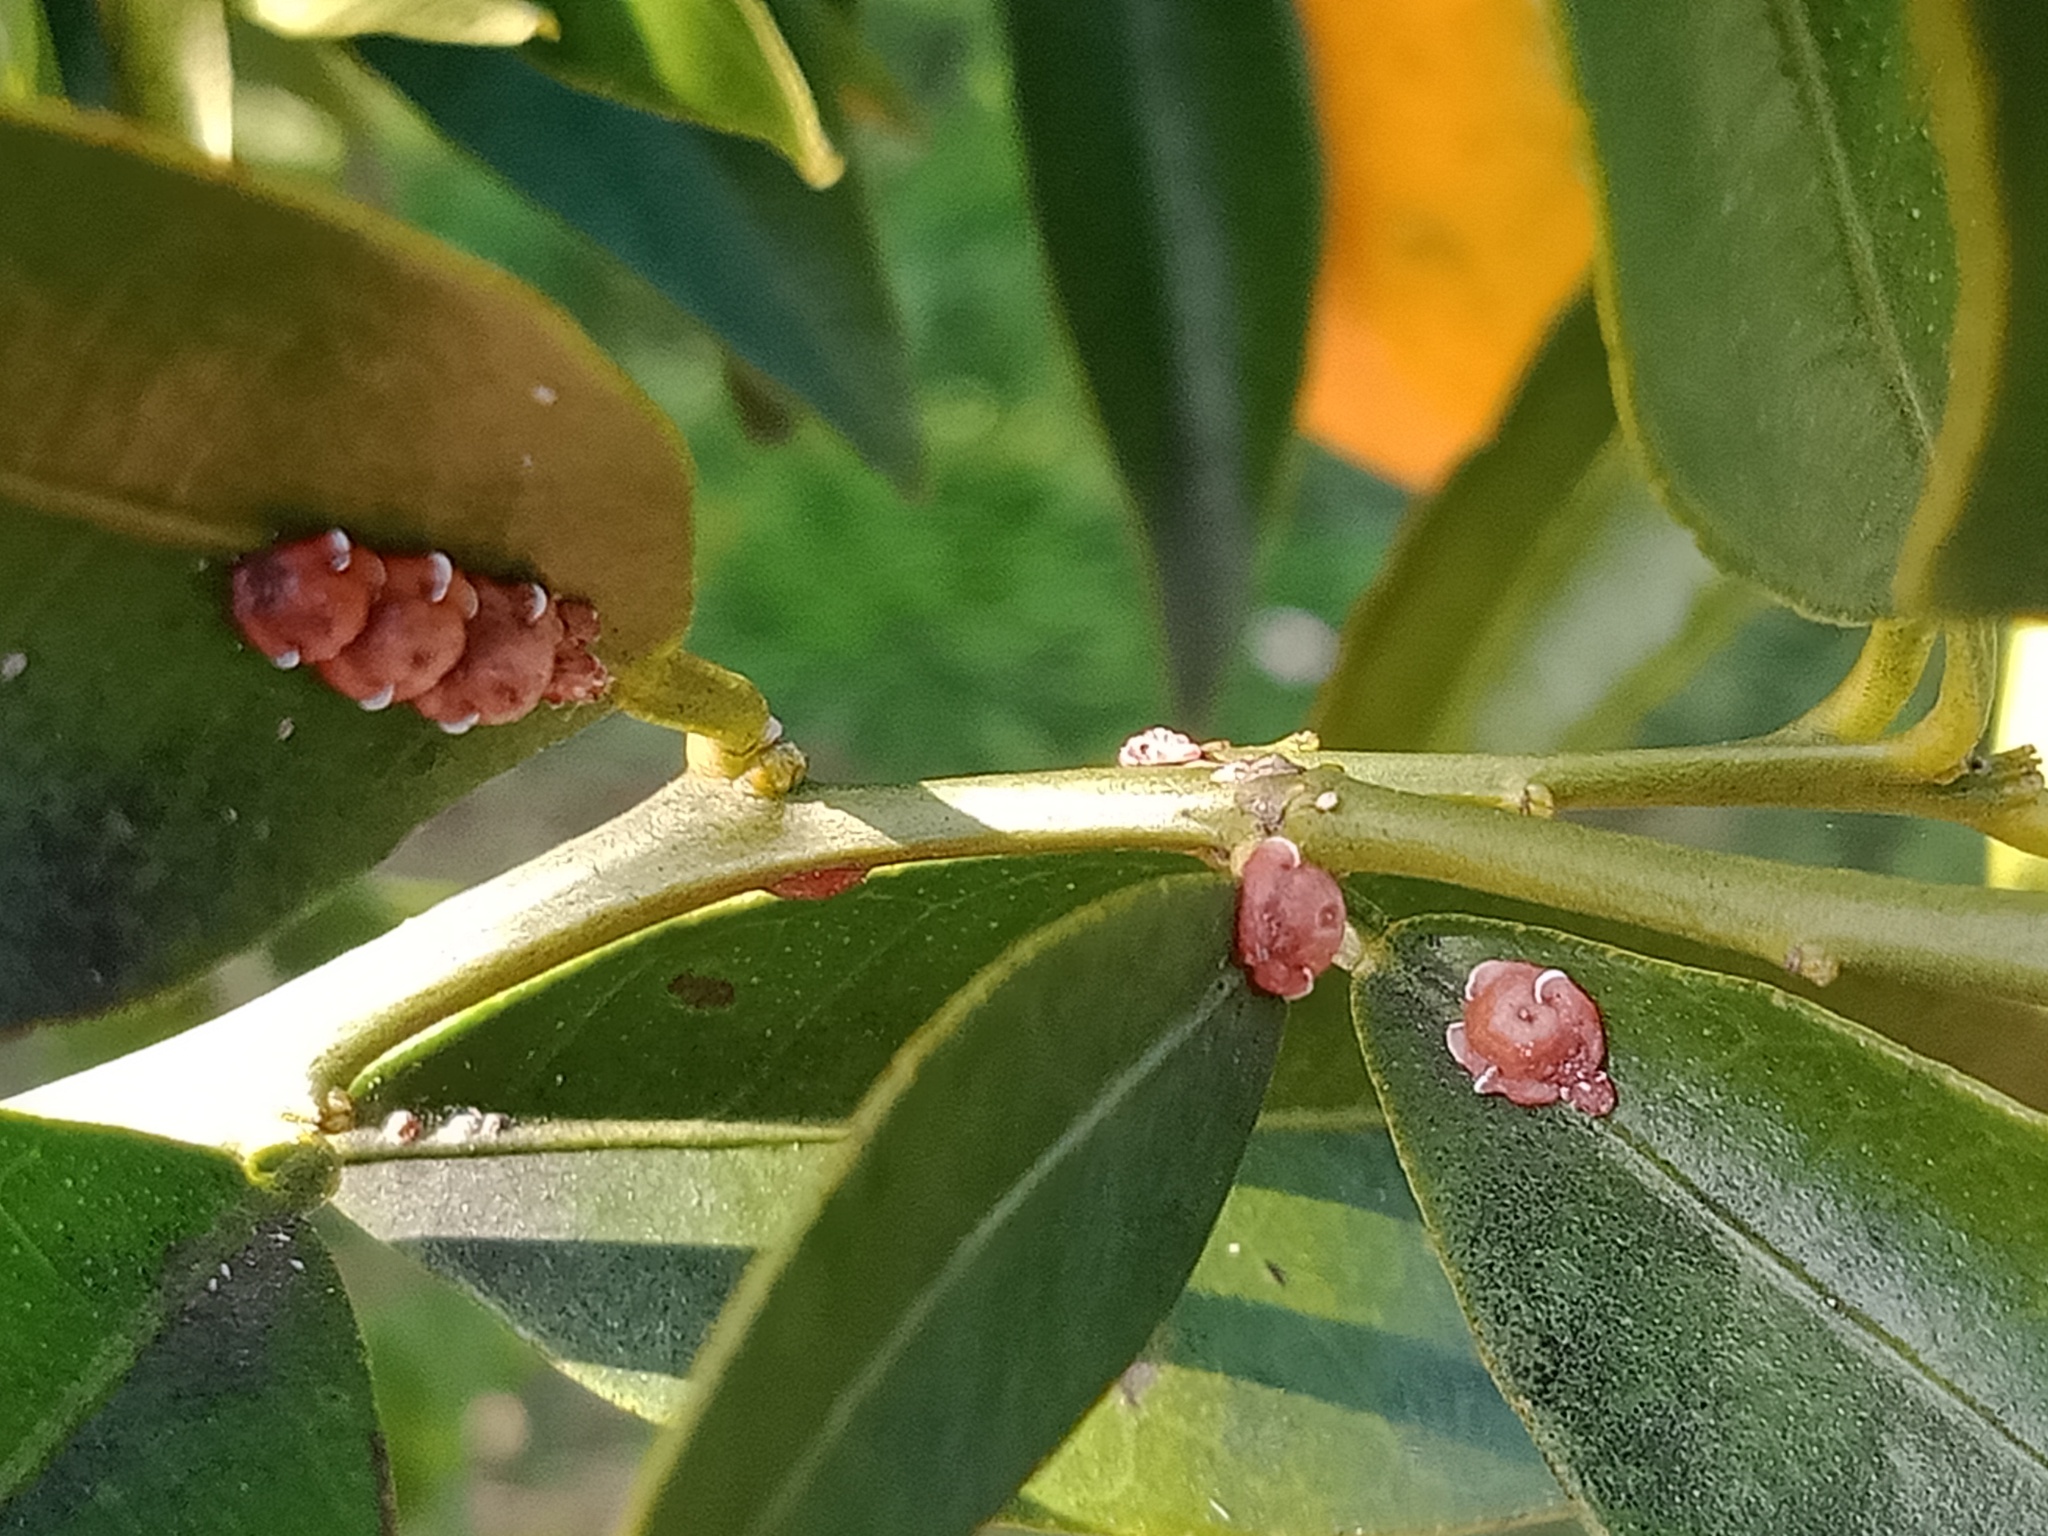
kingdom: Animalia
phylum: Arthropoda
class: Insecta
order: Hemiptera
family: Coccidae
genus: Ceroplastes
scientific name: Ceroplastes rubens
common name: Pink wax scale
